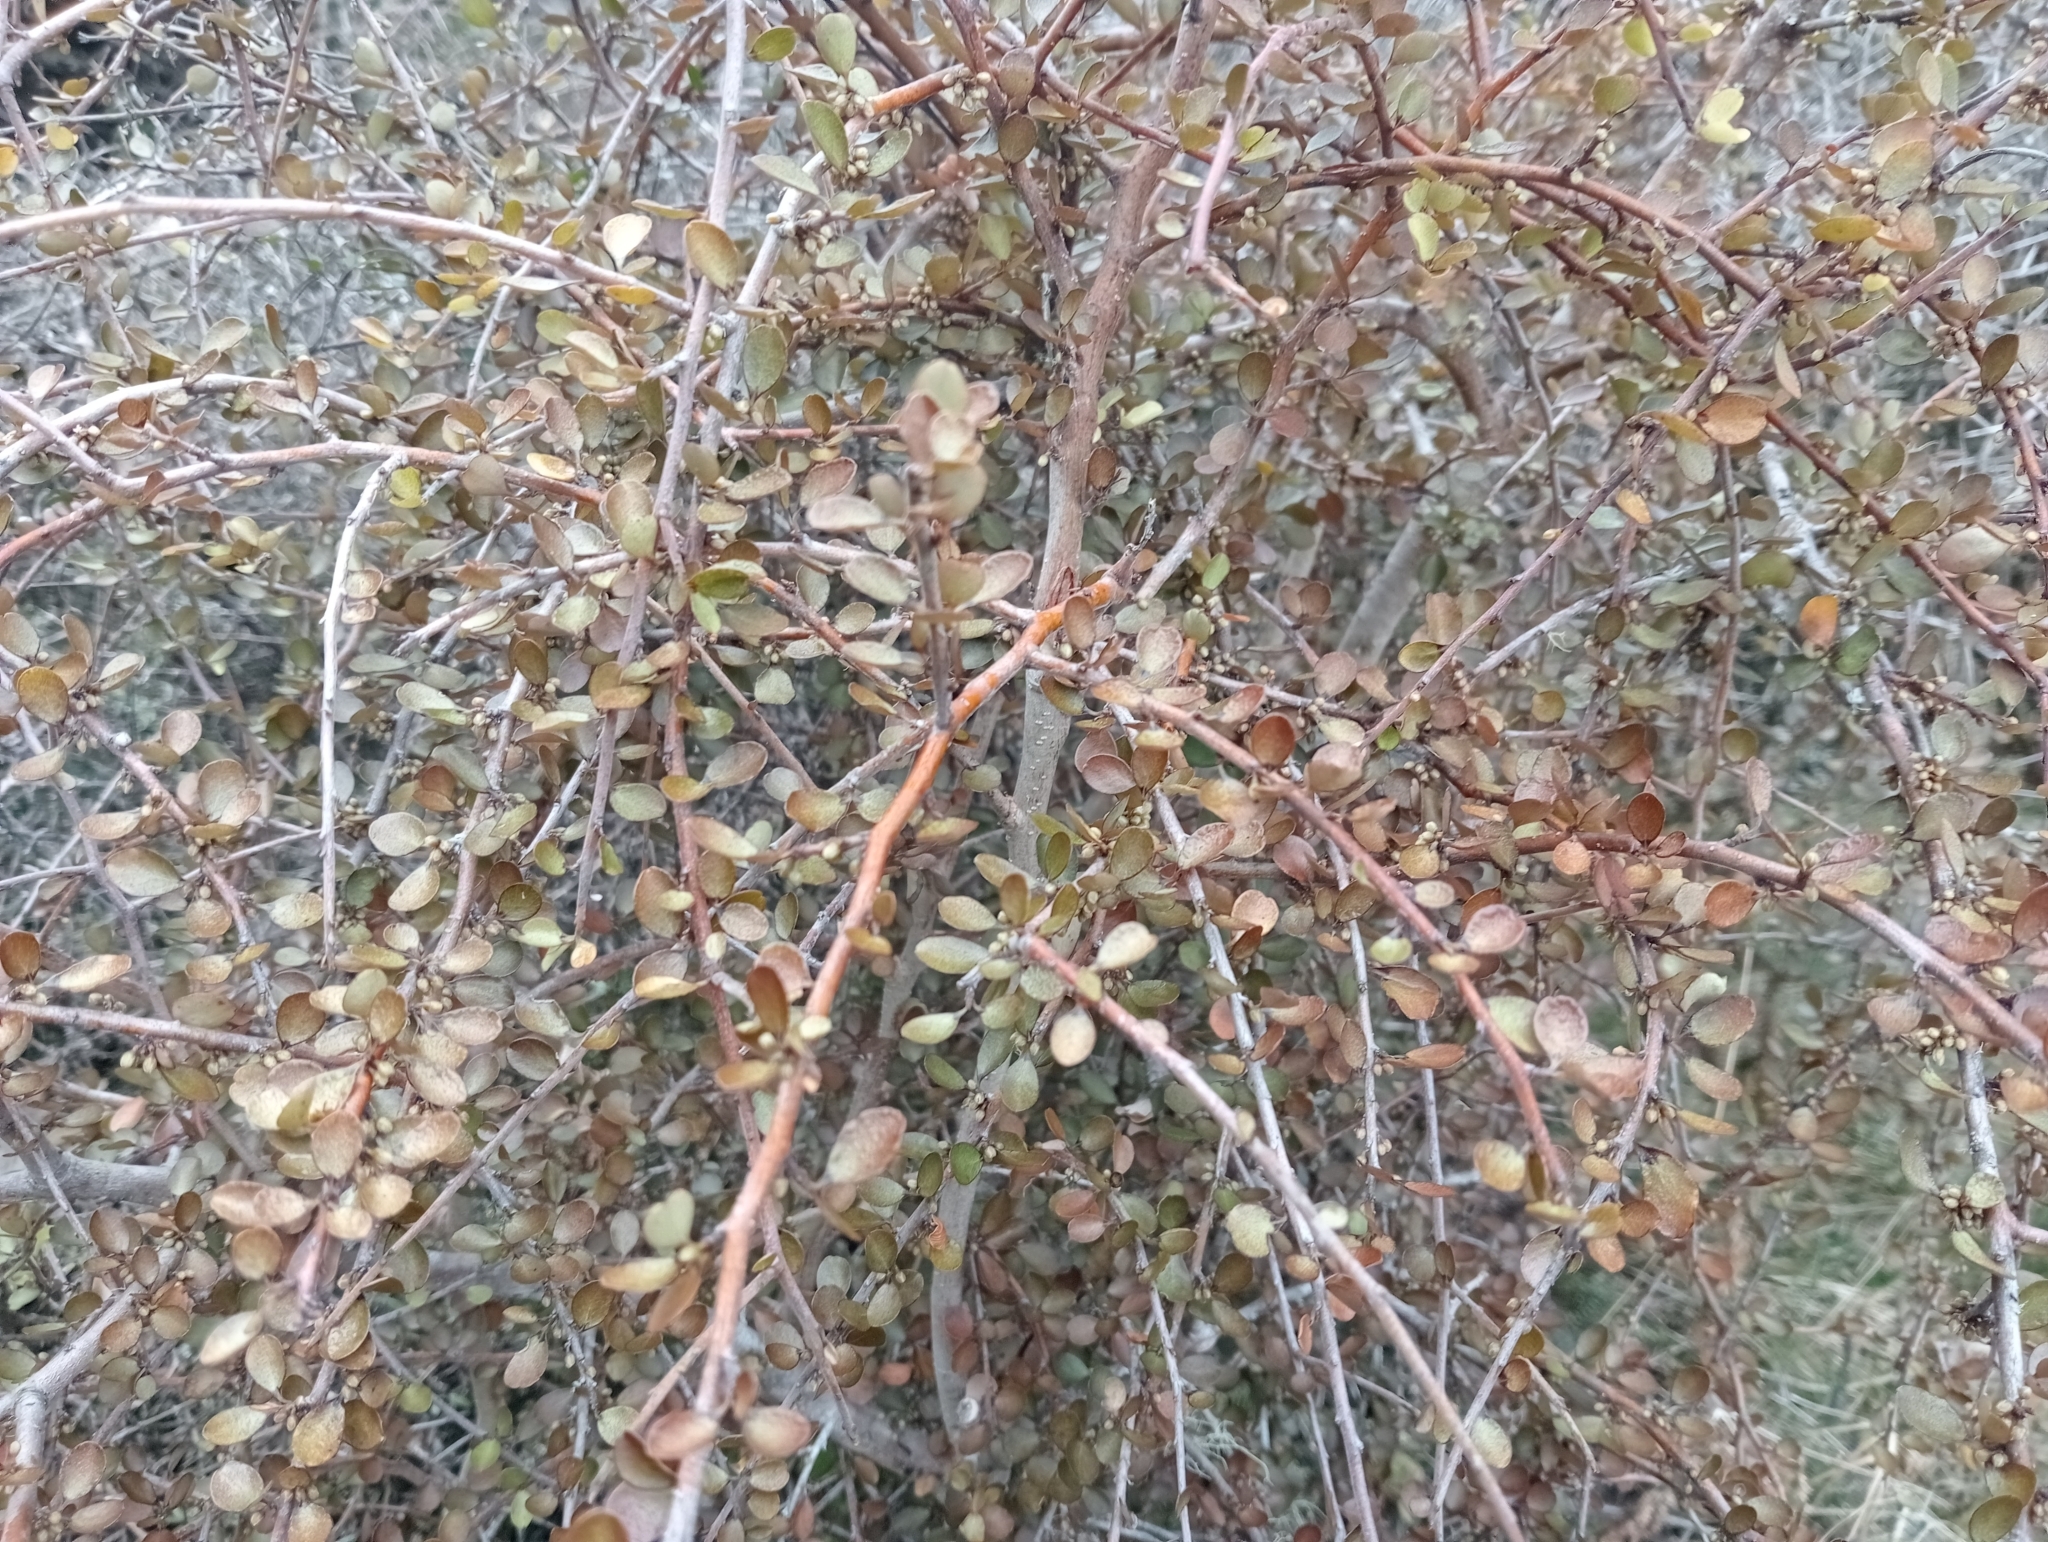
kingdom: Plantae
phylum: Tracheophyta
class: Magnoliopsida
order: Ericales
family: Primulaceae
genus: Myrsine
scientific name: Myrsine divaricata
